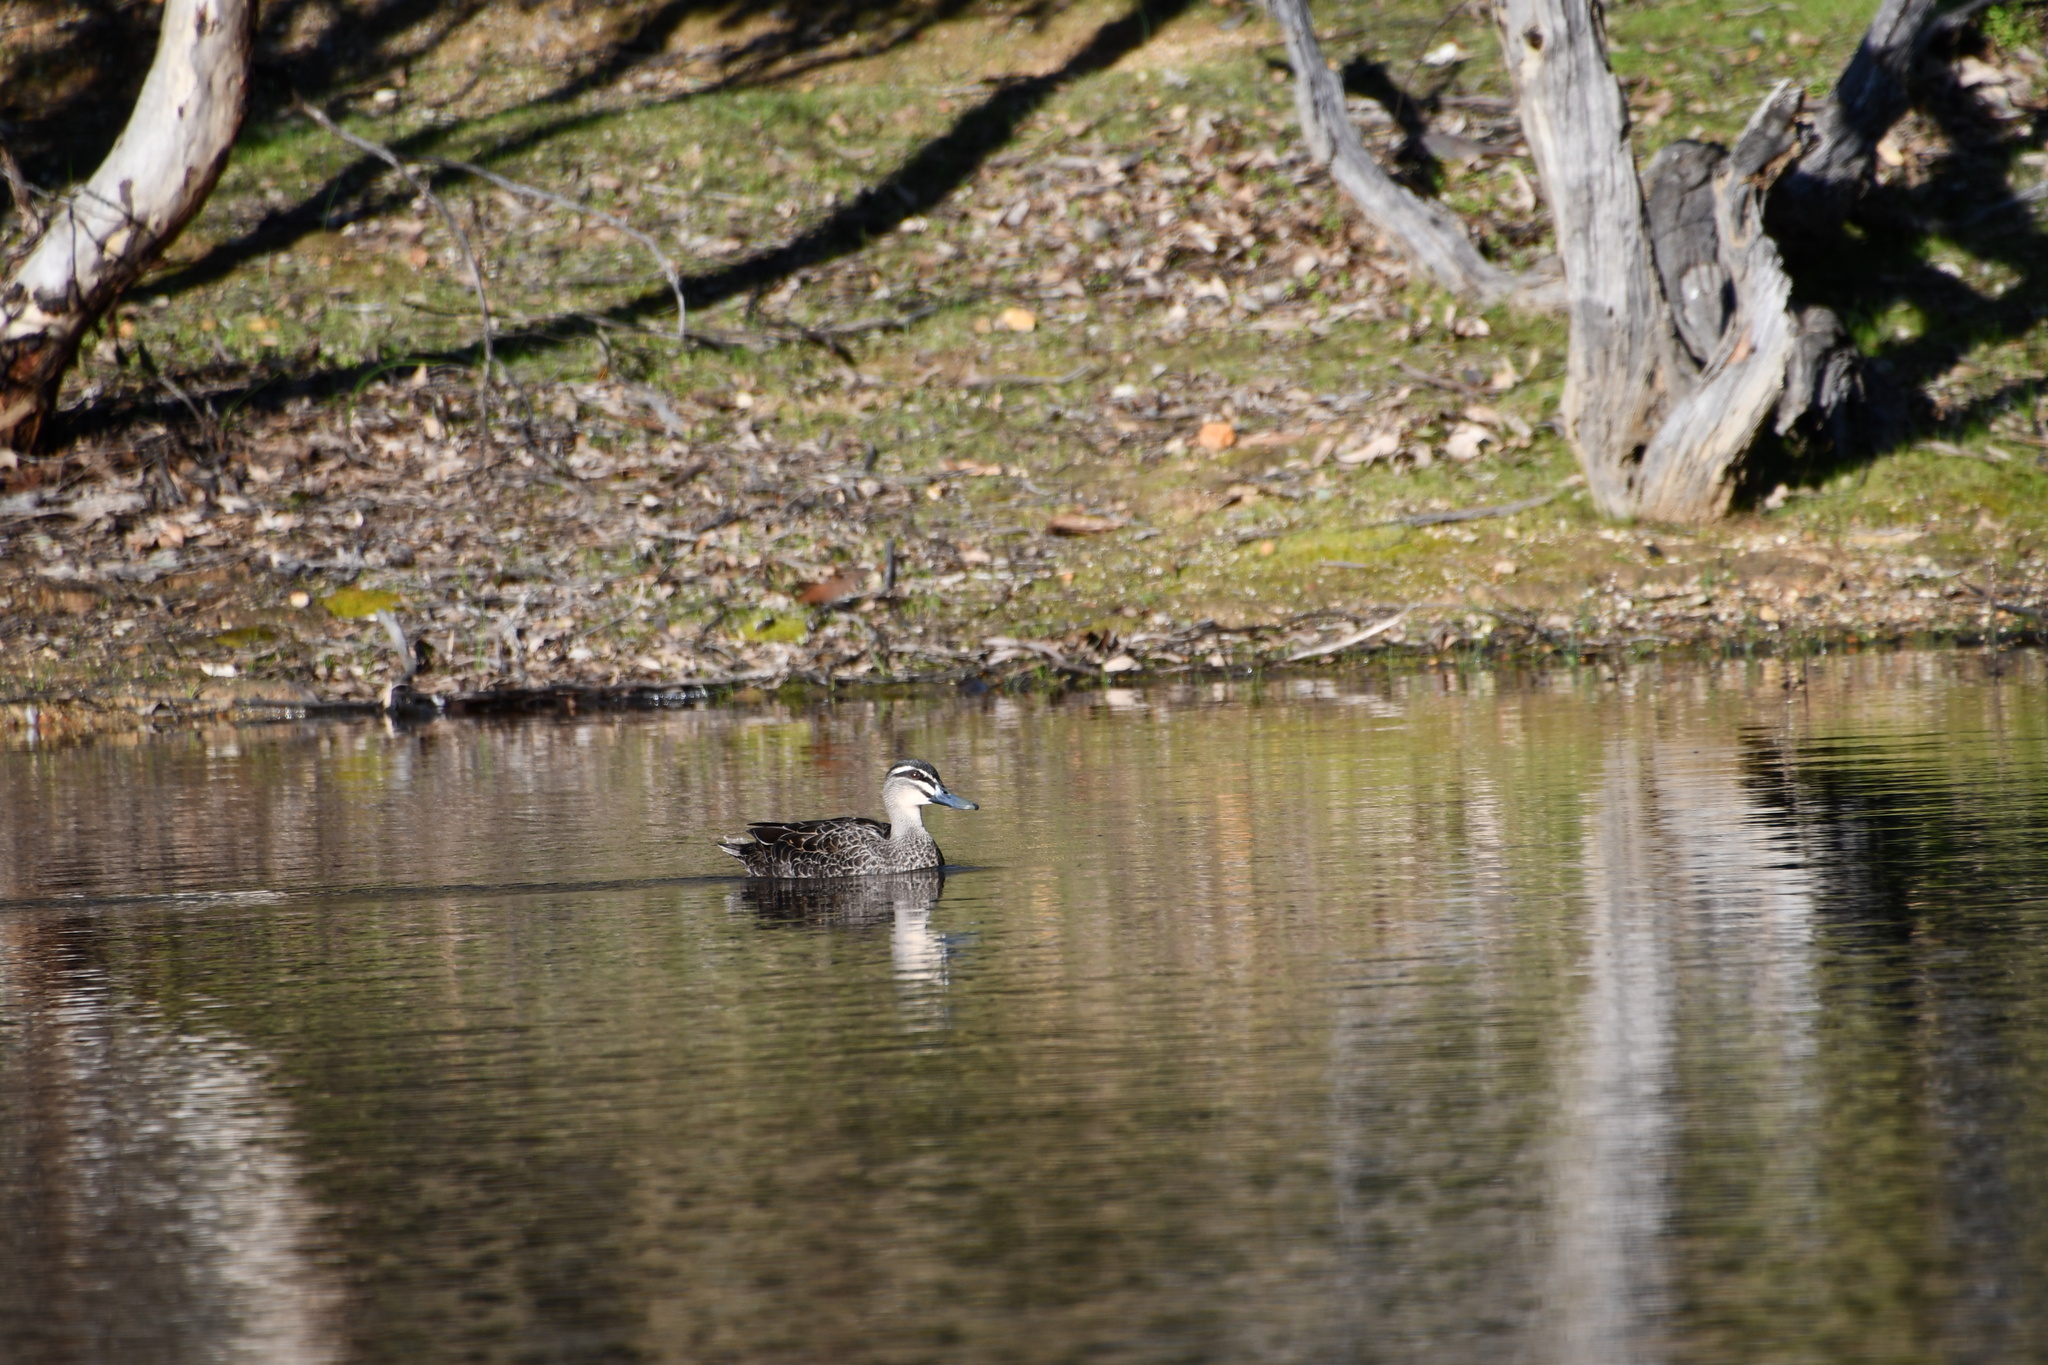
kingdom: Animalia
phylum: Chordata
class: Aves
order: Anseriformes
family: Anatidae
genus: Anas
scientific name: Anas superciliosa
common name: Pacific black duck
